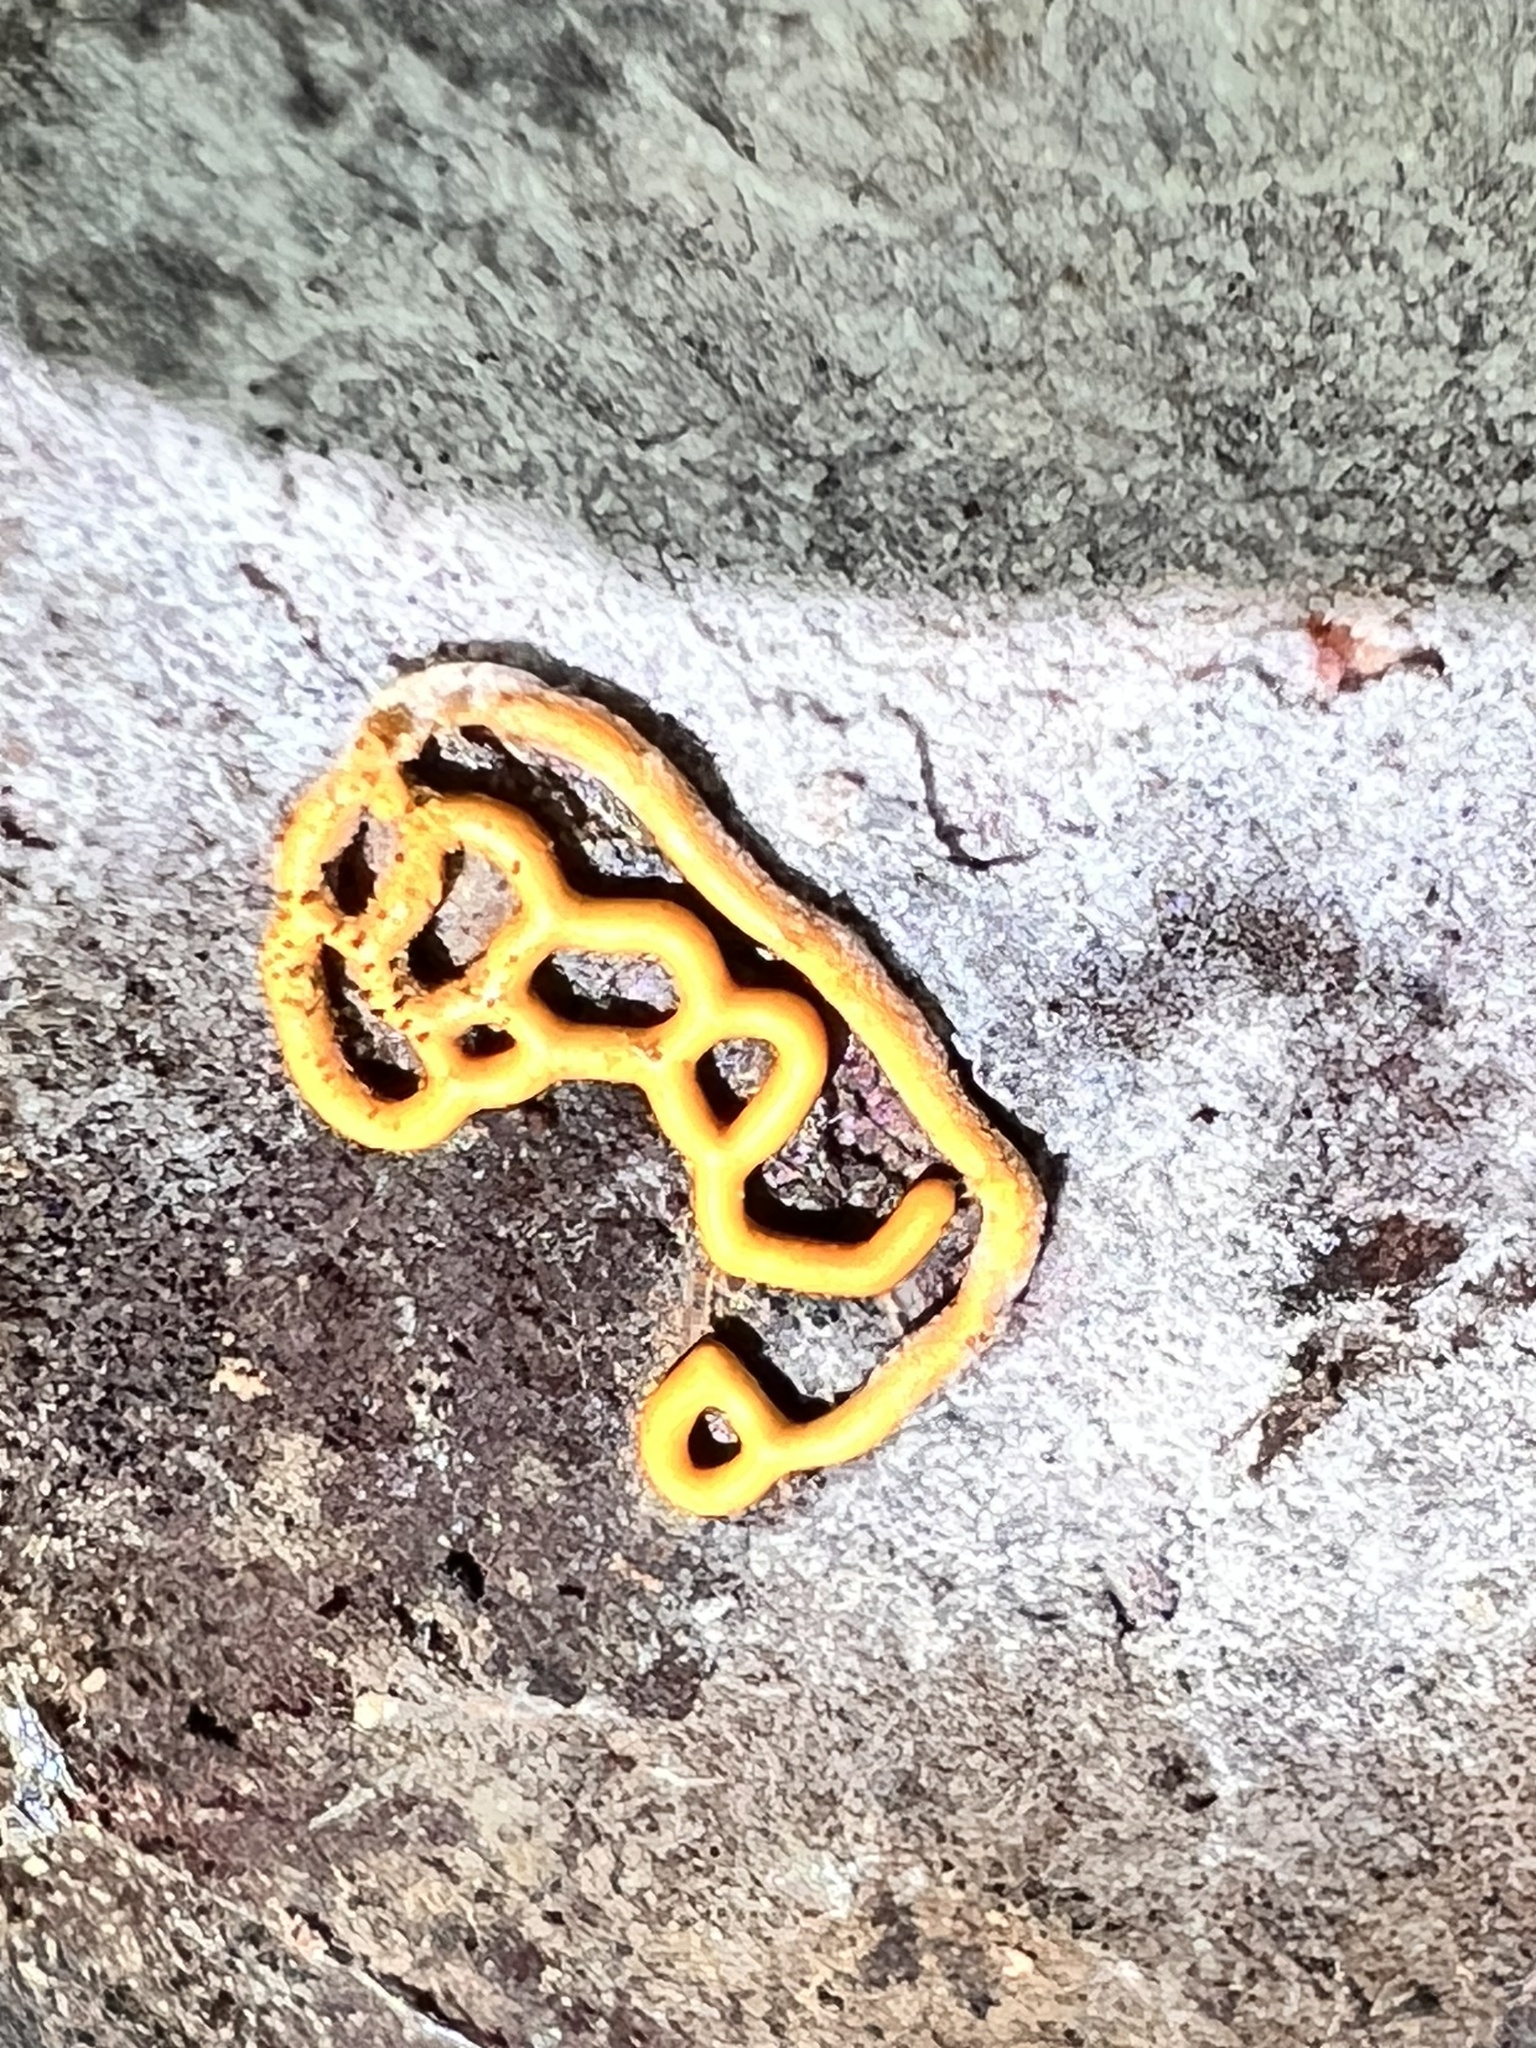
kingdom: Protozoa
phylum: Mycetozoa
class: Myxomycetes
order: Trichiales
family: Arcyriaceae
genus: Hemitrichia
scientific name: Hemitrichia serpula
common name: Pretzel slime mold
